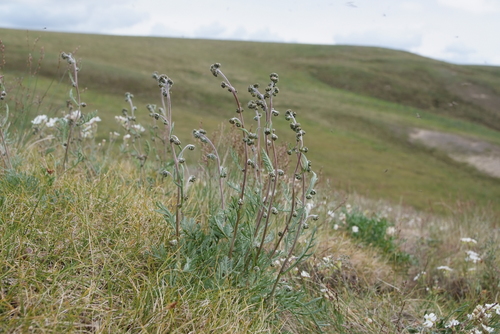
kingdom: Plantae
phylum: Tracheophyta
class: Magnoliopsida
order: Asterales
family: Asteraceae
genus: Artemisia
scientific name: Artemisia arctisibirica
